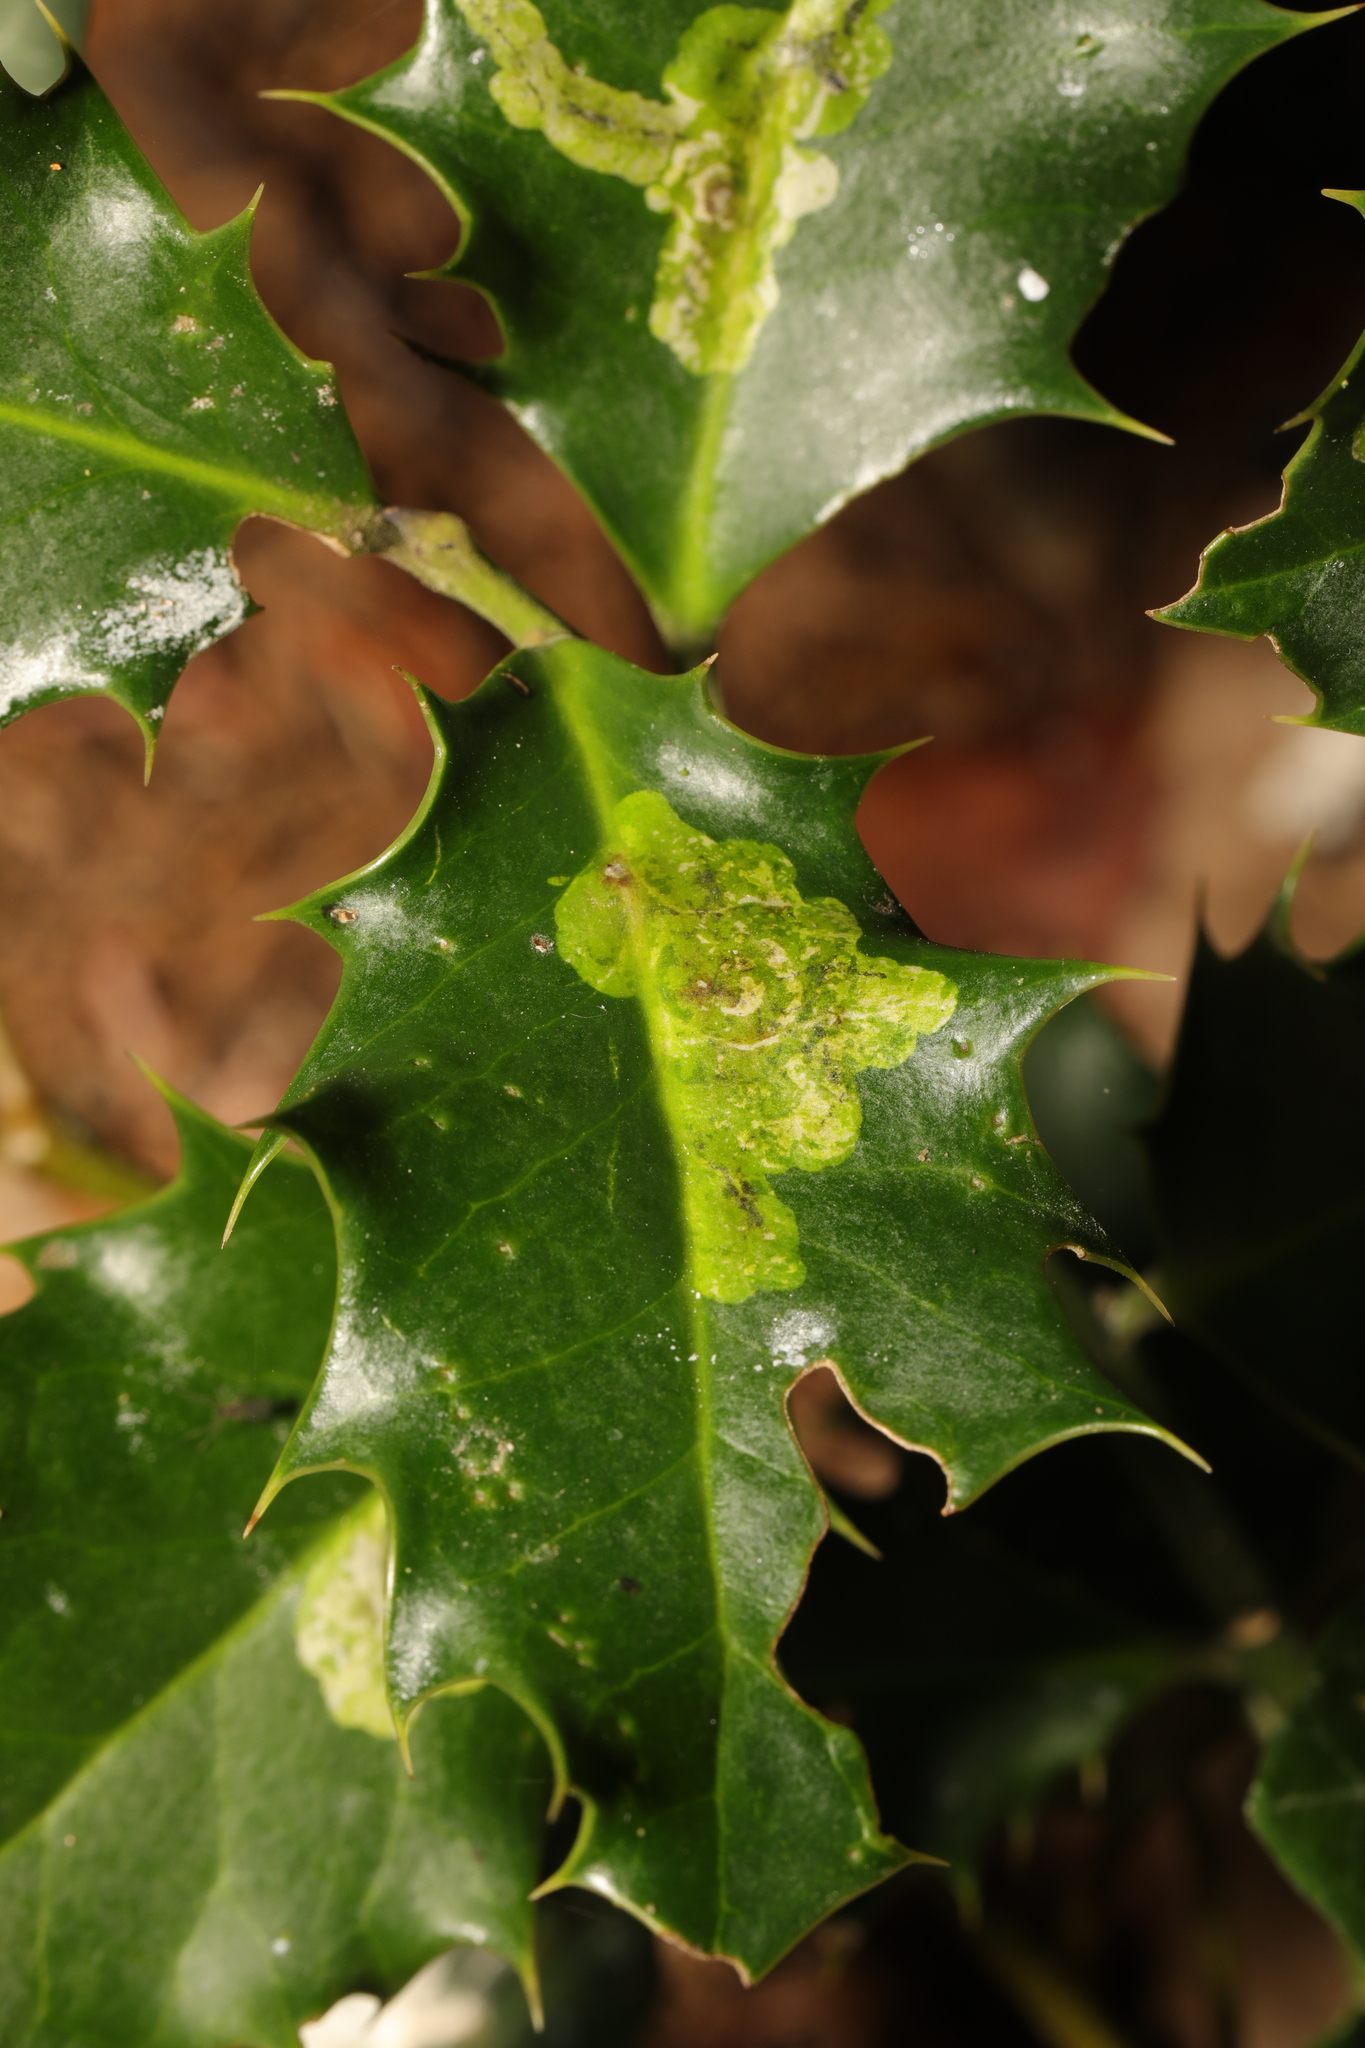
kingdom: Animalia
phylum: Arthropoda
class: Insecta
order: Diptera
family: Agromyzidae
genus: Phytomyza
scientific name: Phytomyza ilicis
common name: Holly leafminer
